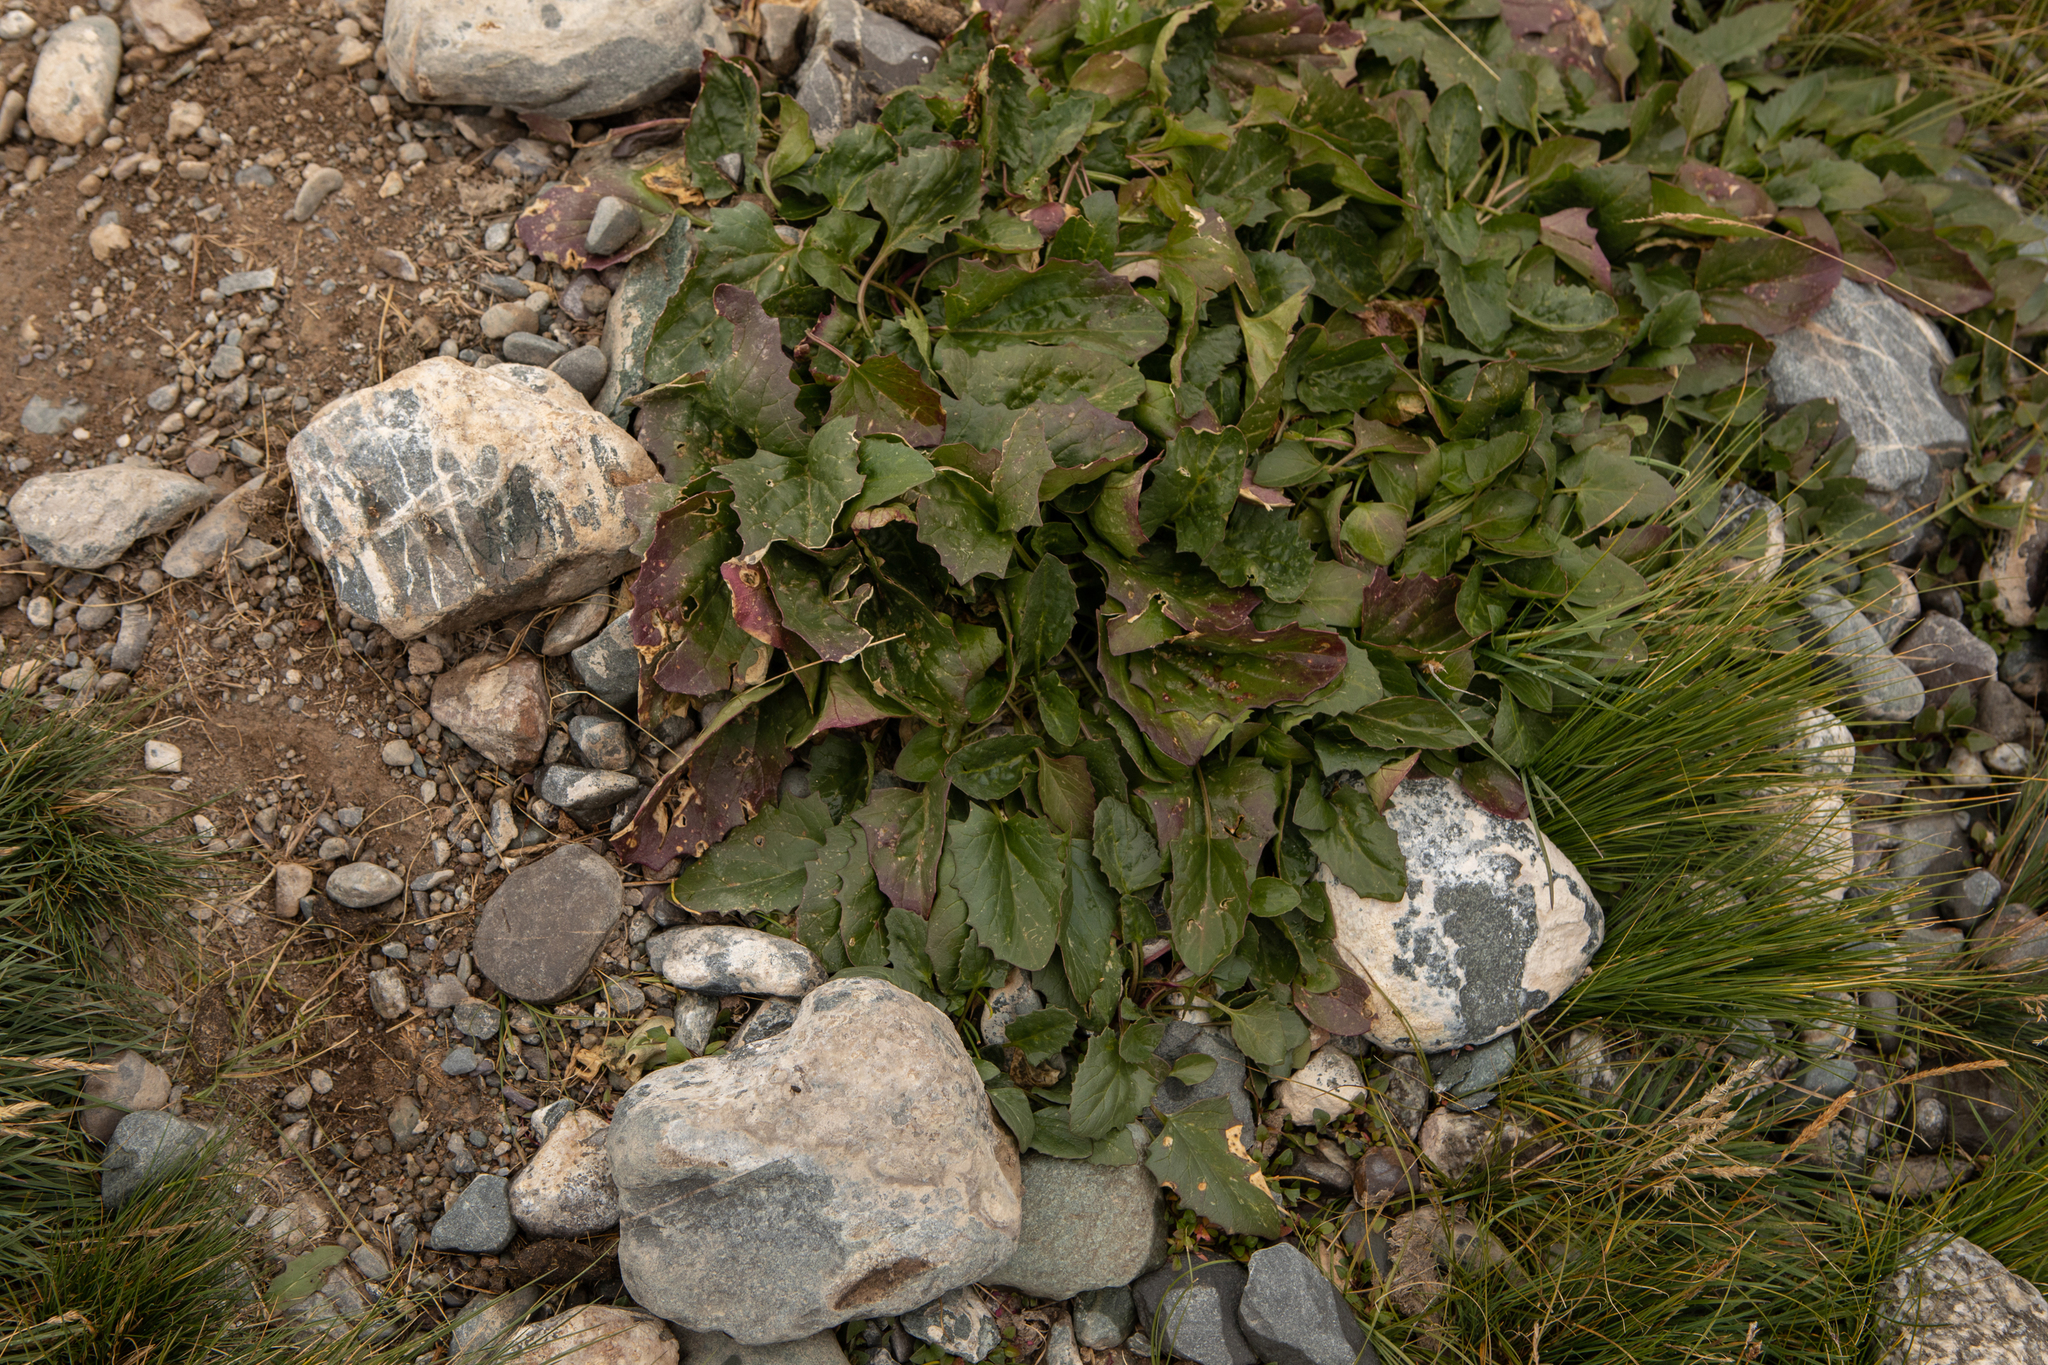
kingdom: Plantae
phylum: Tracheophyta
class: Magnoliopsida
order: Caryophyllales
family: Amaranthaceae
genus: Blitum
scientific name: Blitum virgatum
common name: Strawberry goosefoot
